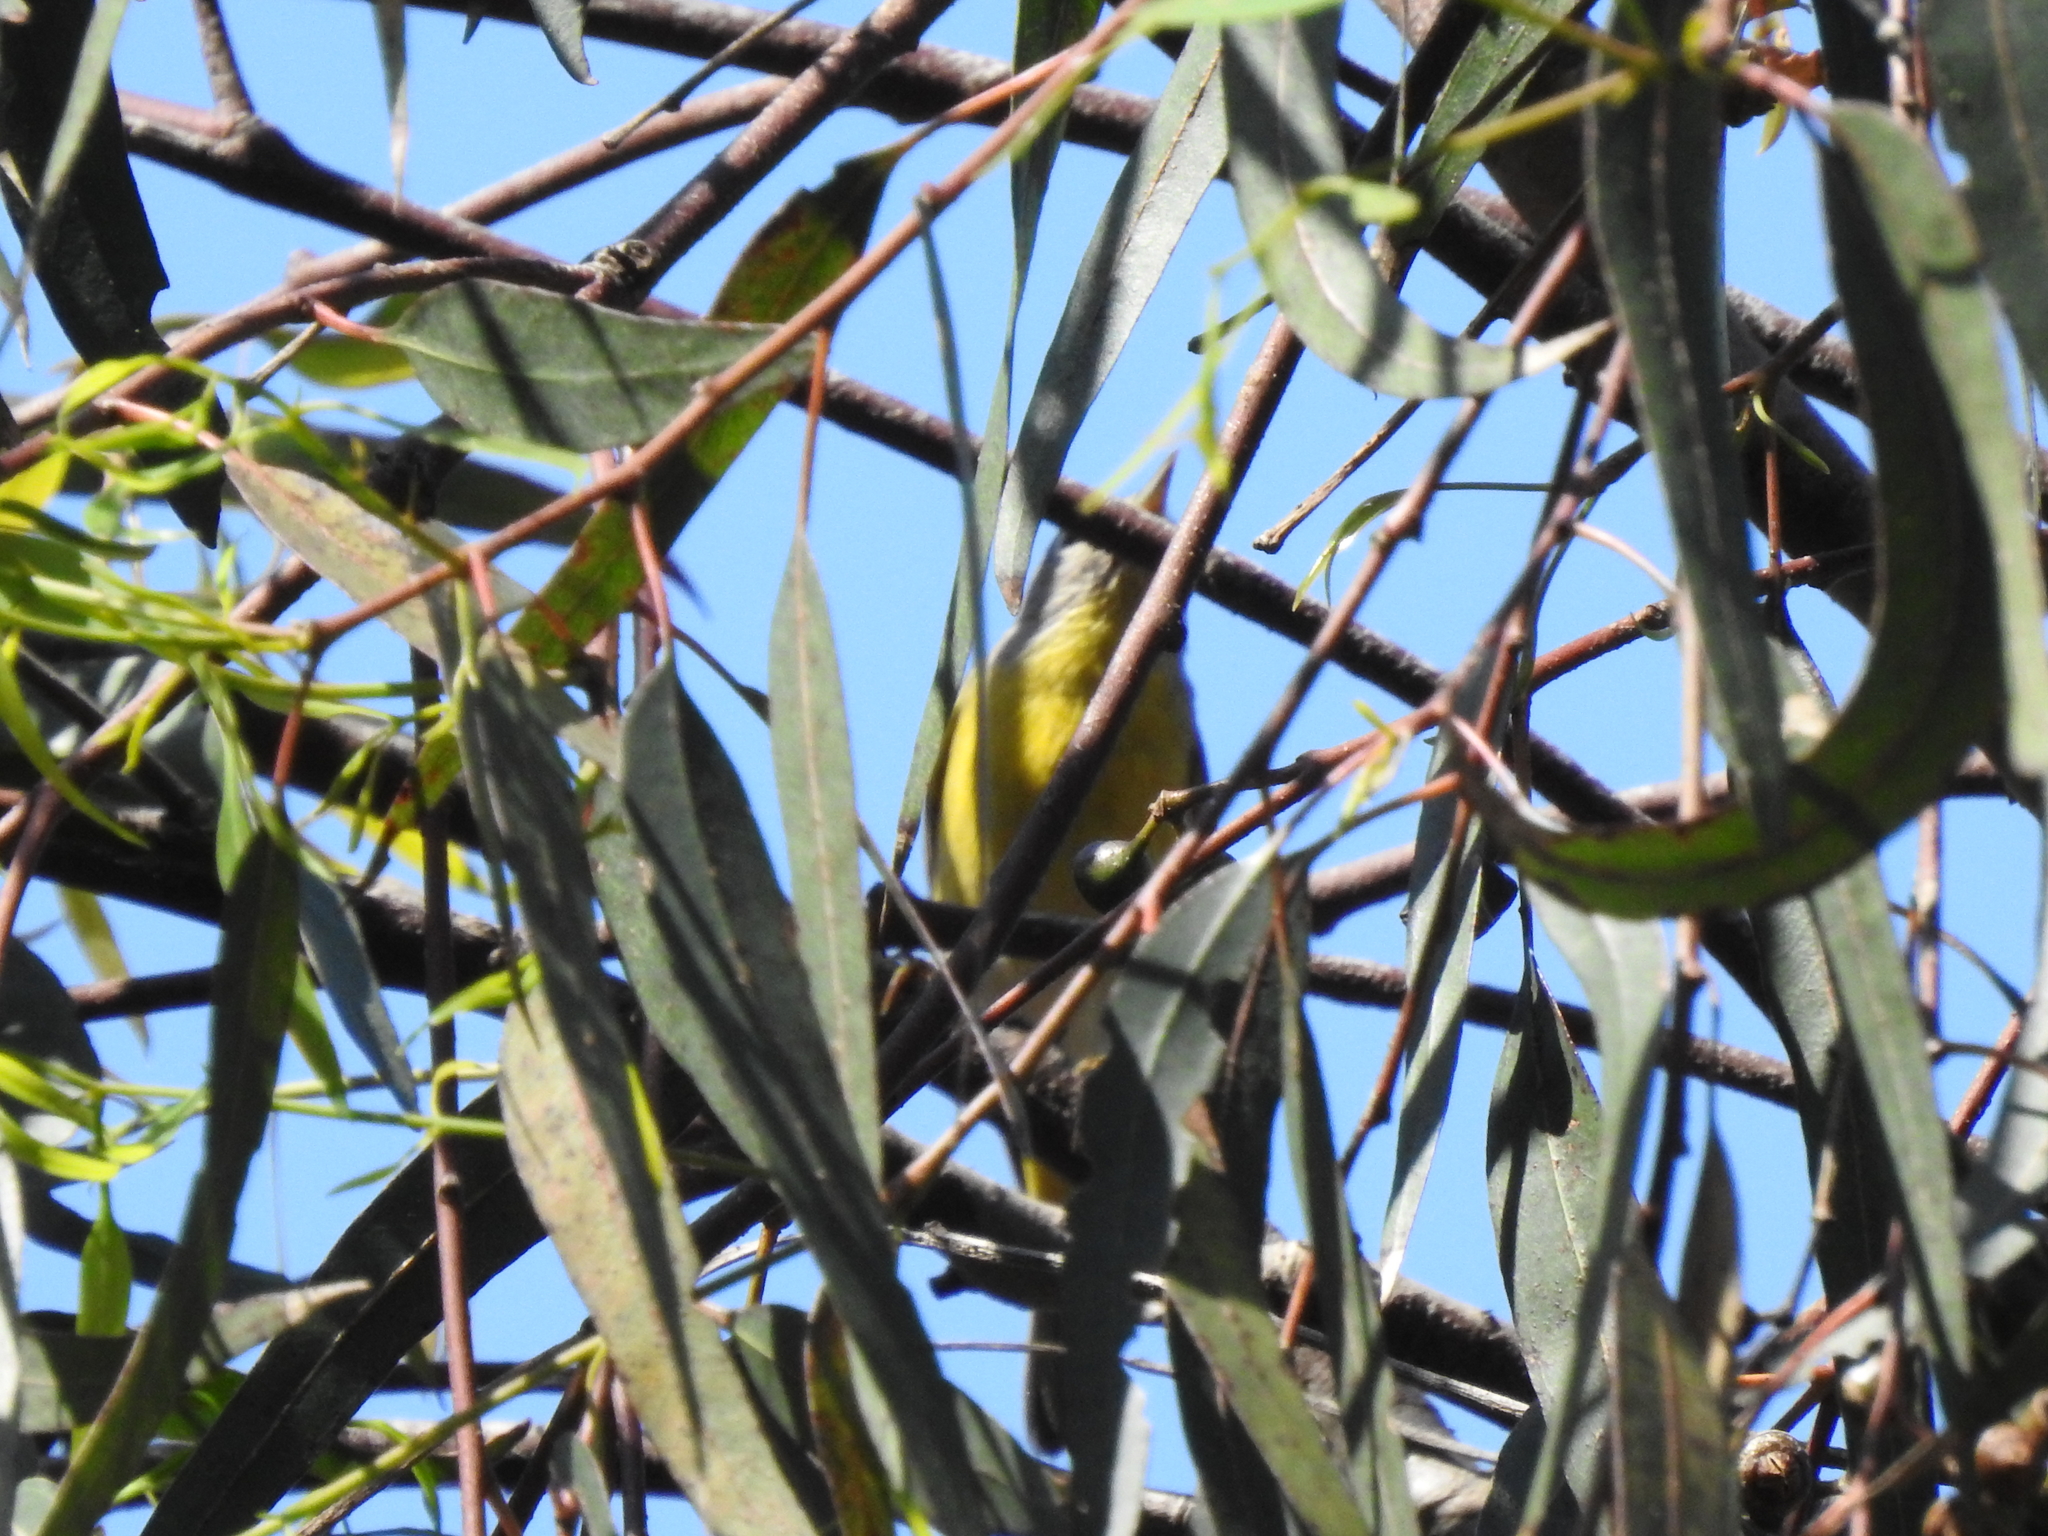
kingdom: Animalia
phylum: Chordata
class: Aves
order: Passeriformes
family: Parulidae
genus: Leiothlypis
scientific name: Leiothlypis ruficapilla
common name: Nashville warbler
